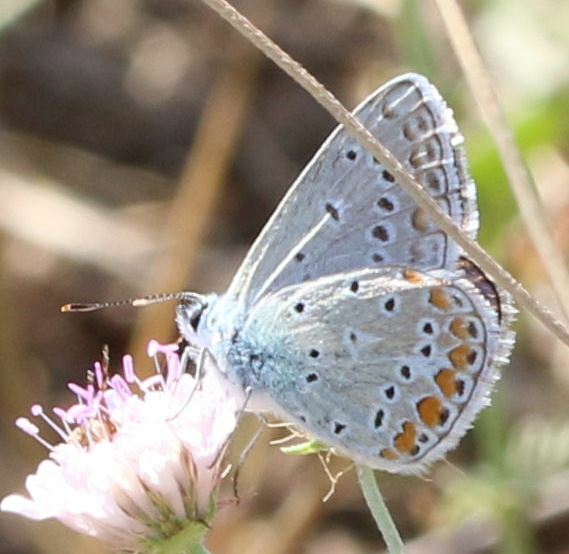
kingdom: Animalia
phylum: Arthropoda
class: Insecta
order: Lepidoptera
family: Lycaenidae
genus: Polyommatus
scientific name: Polyommatus icarus
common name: Common blue
